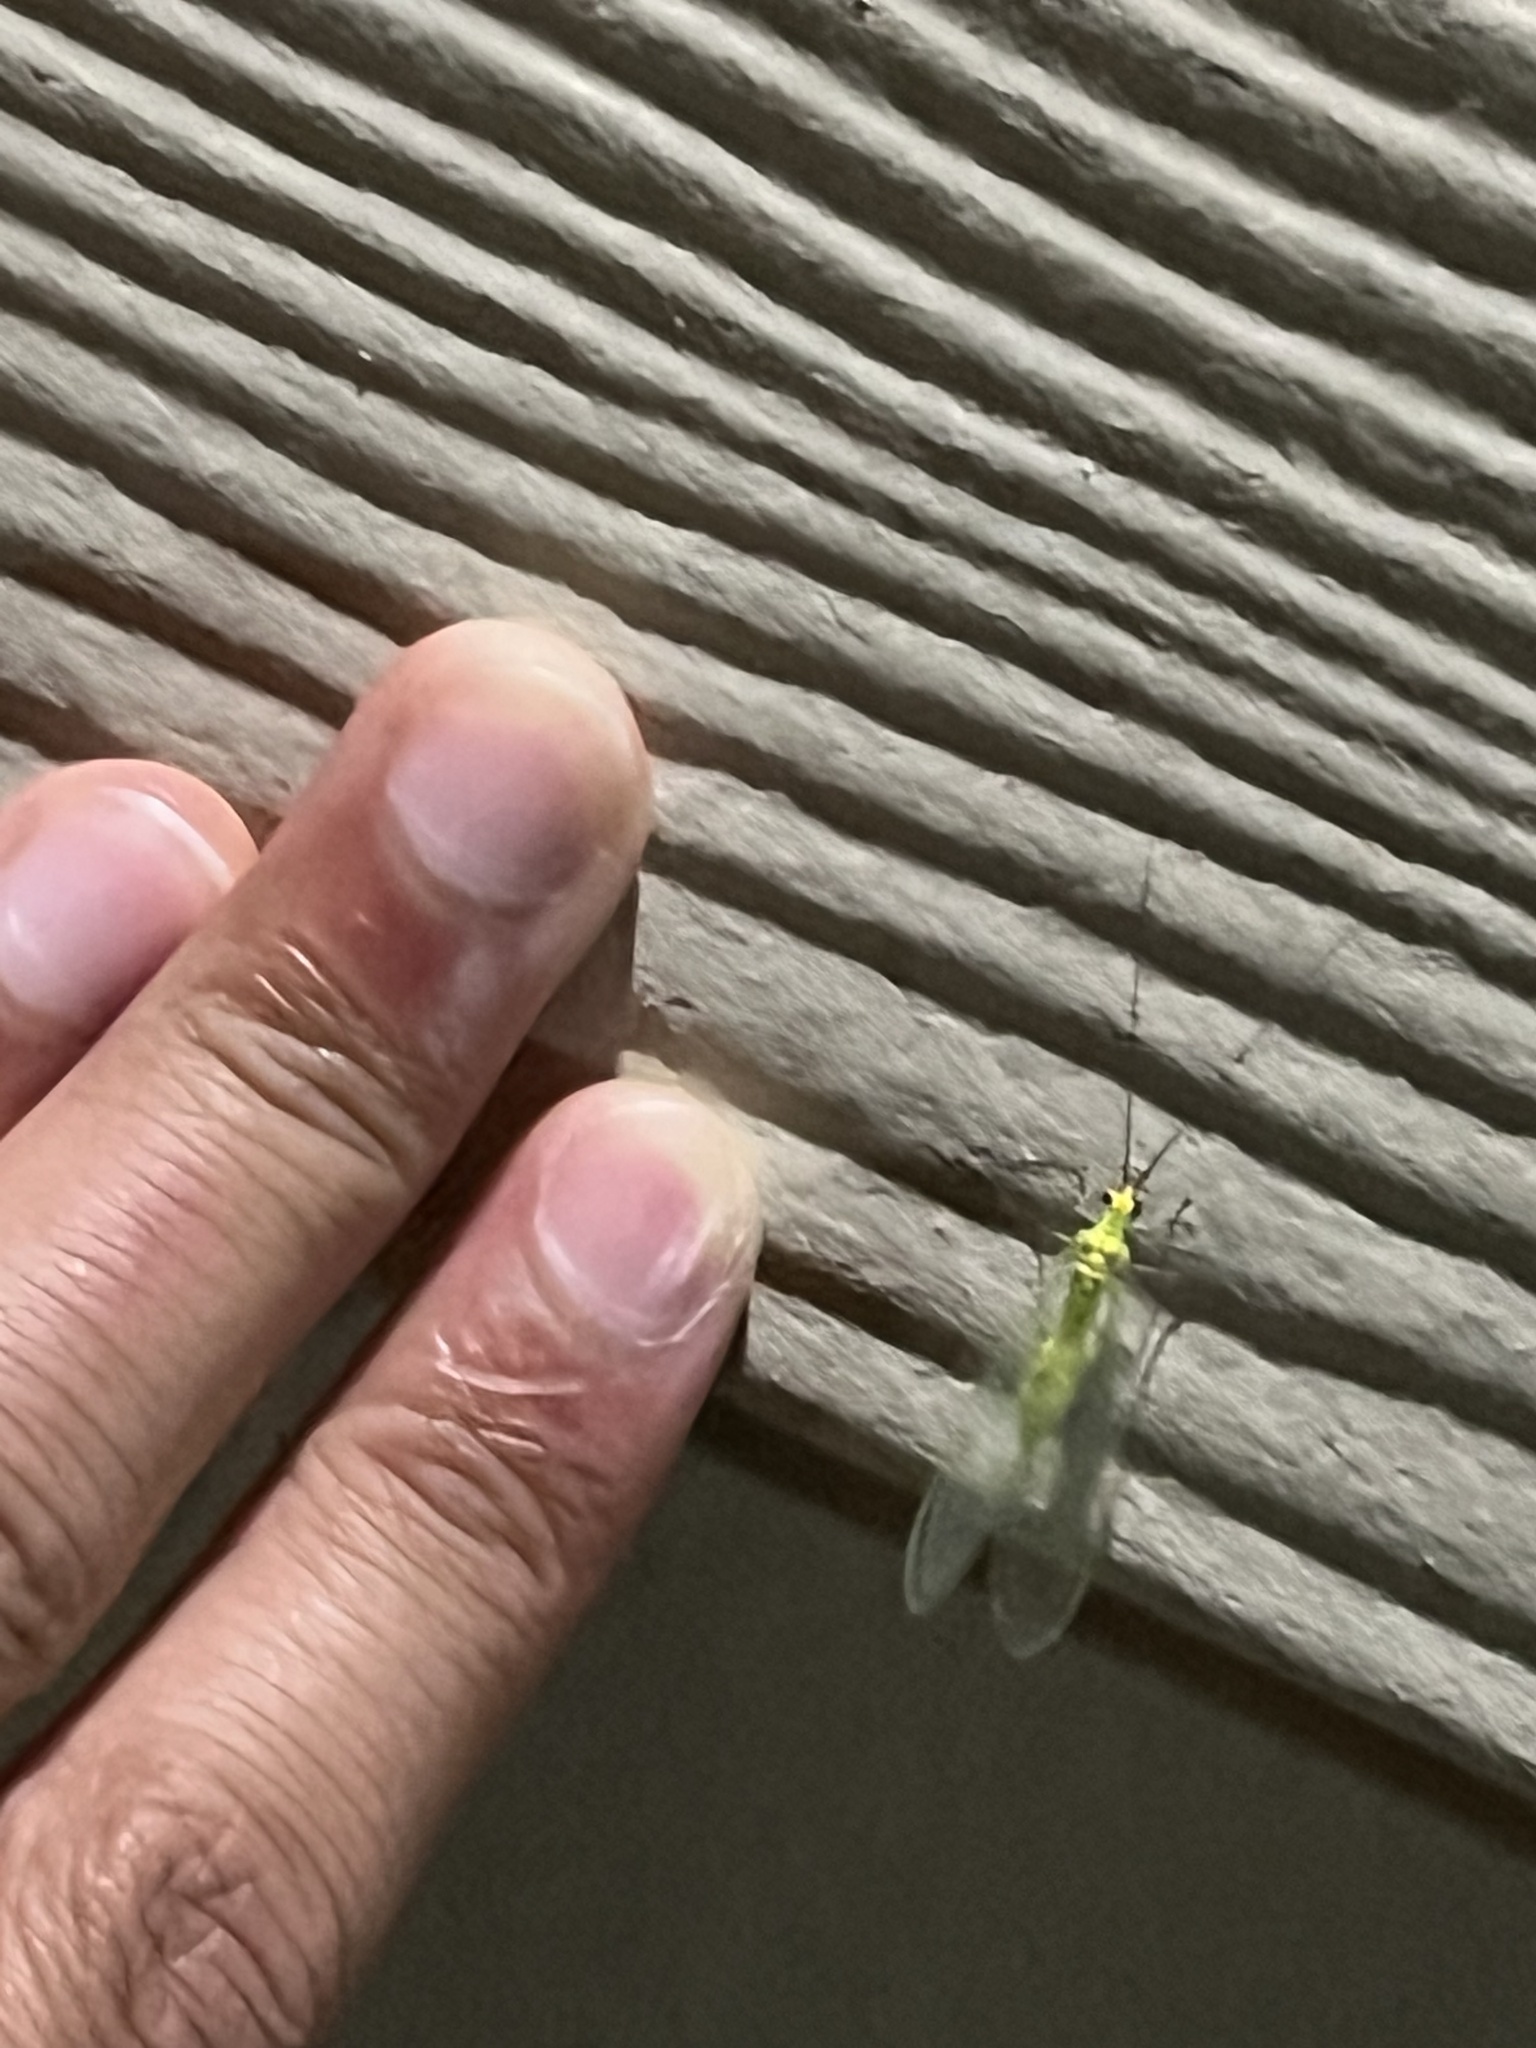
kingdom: Animalia
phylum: Arthropoda
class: Insecta
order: Neuroptera
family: Chrysopidae
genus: Leucochrysa
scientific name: Leucochrysa pavida
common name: Lichen-carrying green lacewing
